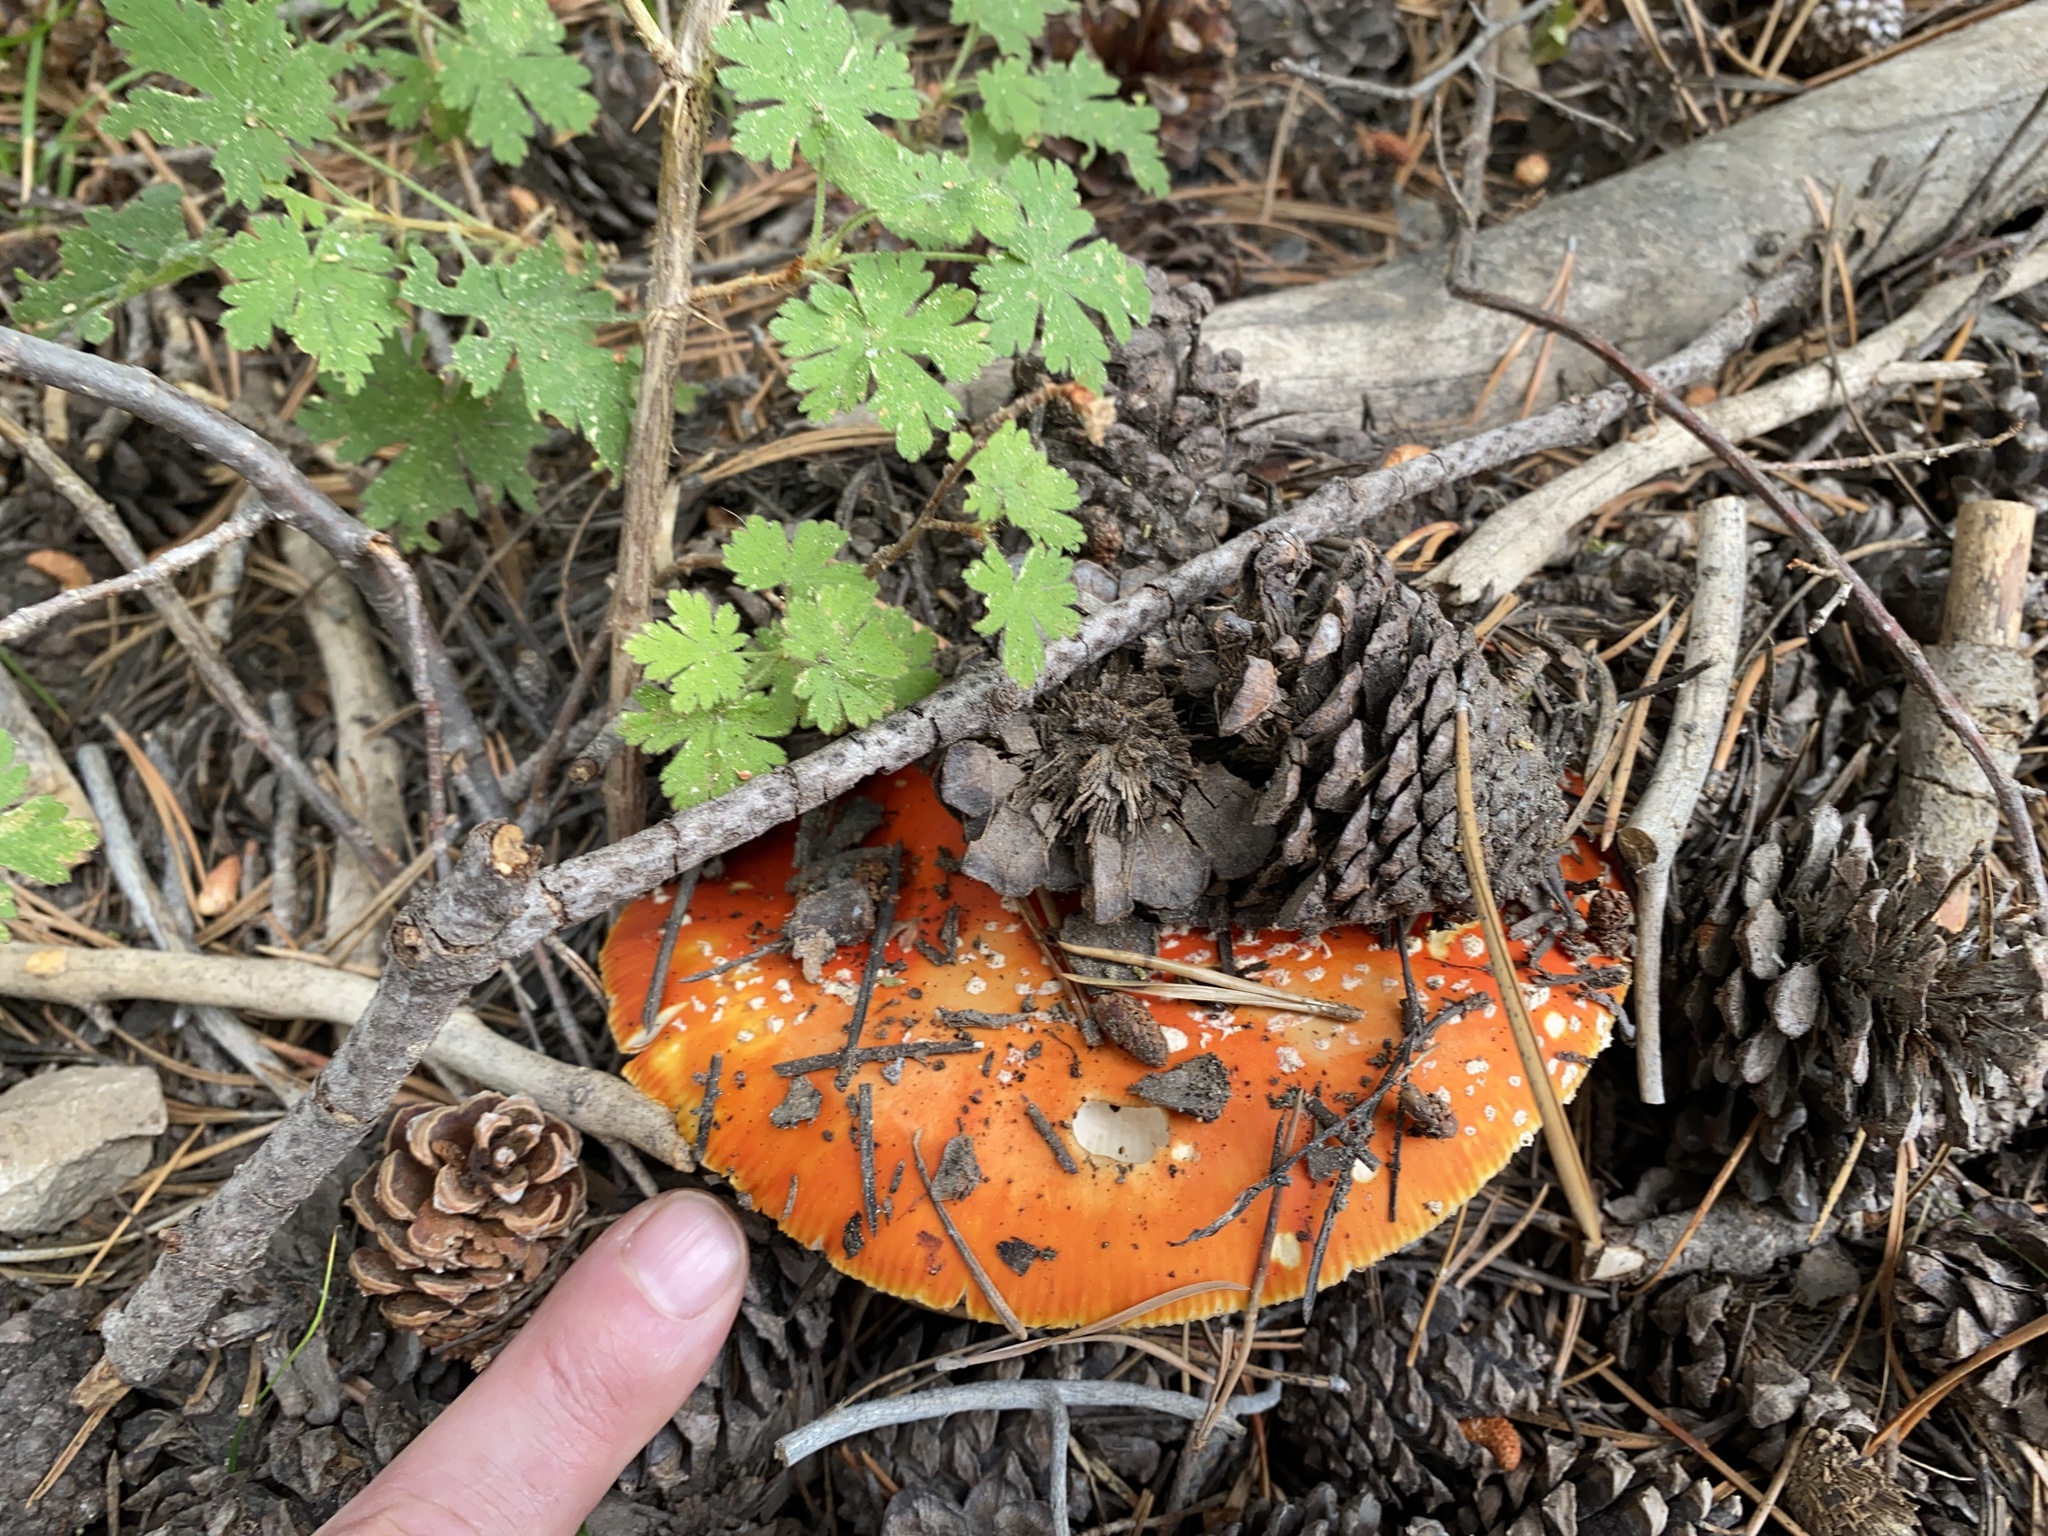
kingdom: Fungi
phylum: Basidiomycota
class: Agaricomycetes
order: Agaricales
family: Amanitaceae
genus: Amanita
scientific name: Amanita muscaria
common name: Fly agaric
